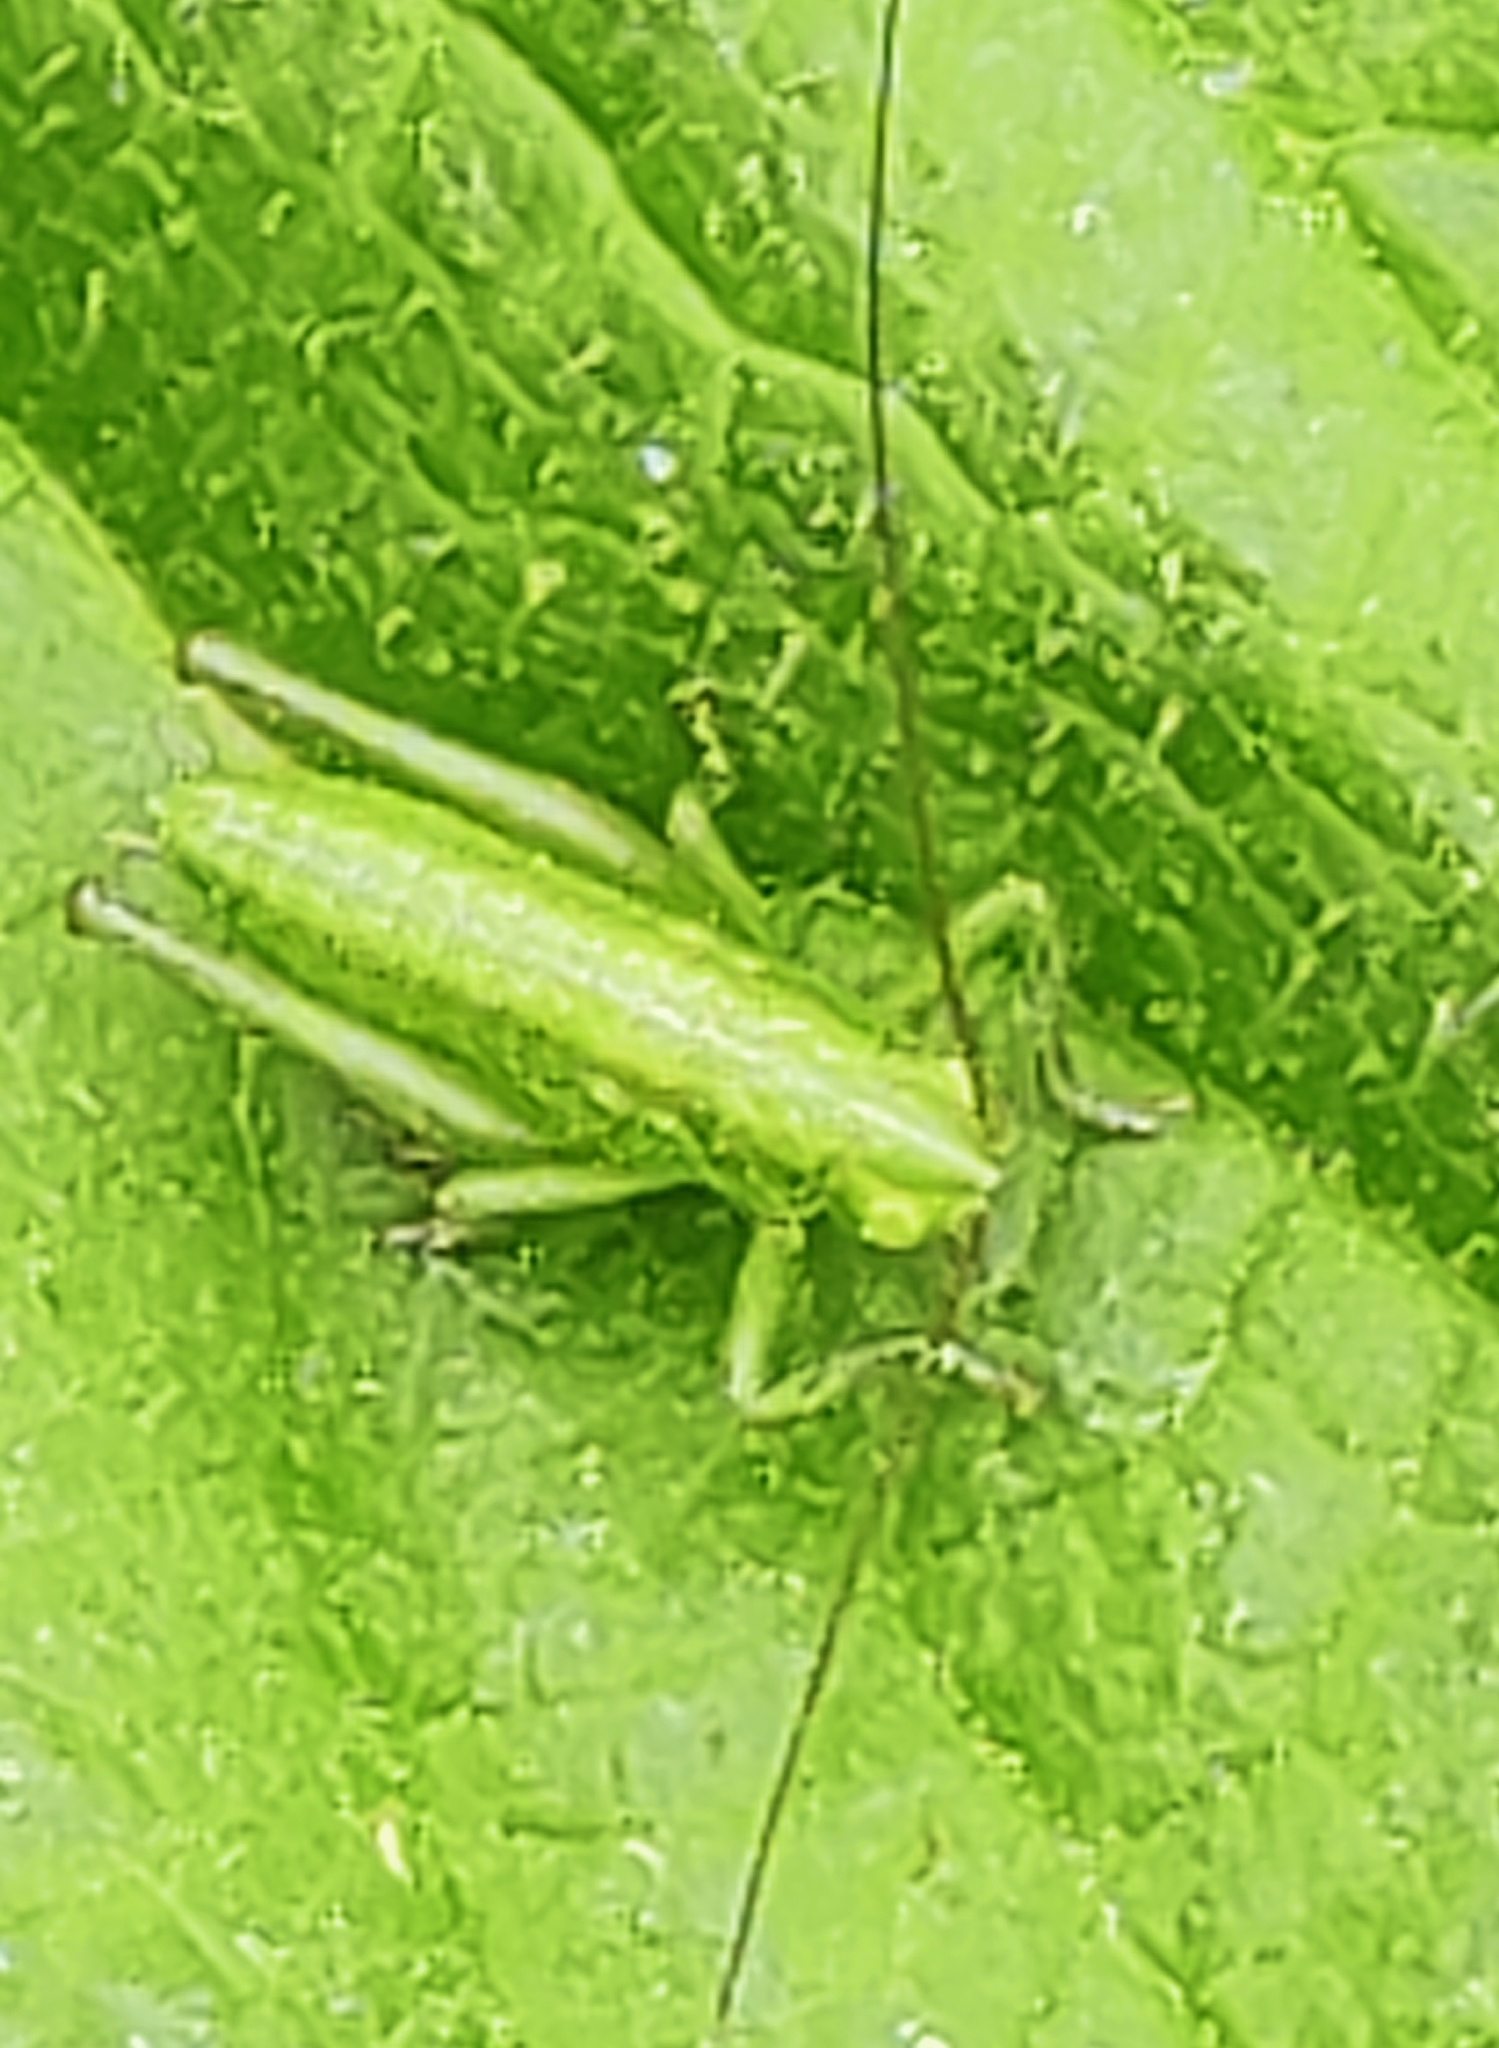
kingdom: Animalia
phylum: Arthropoda
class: Insecta
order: Orthoptera
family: Tettigoniidae
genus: Tettigonia
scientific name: Tettigonia viridissima
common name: Great green bush-cricket
